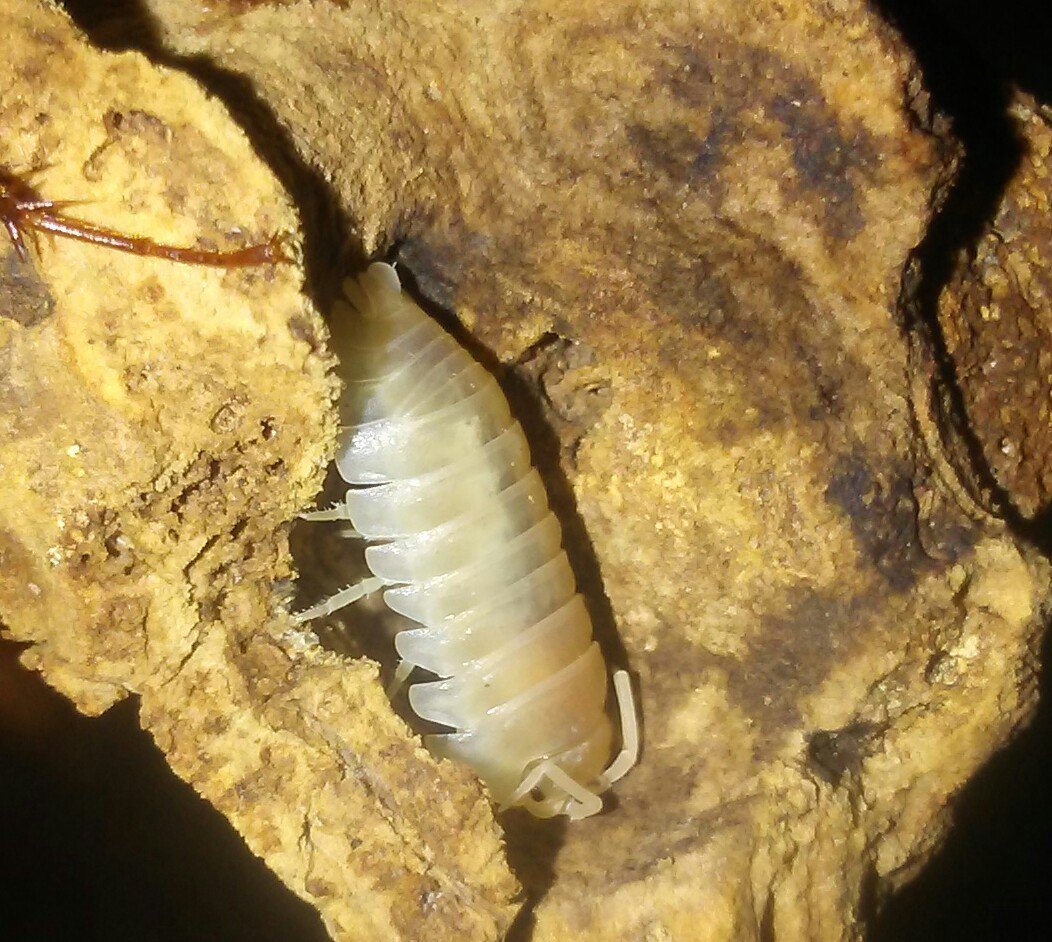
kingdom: Animalia
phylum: Arthropoda
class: Malacostraca
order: Isopoda
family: Armadillidiidae
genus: Armadillidium
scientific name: Armadillidium vulgare
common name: Common pill woodlouse
